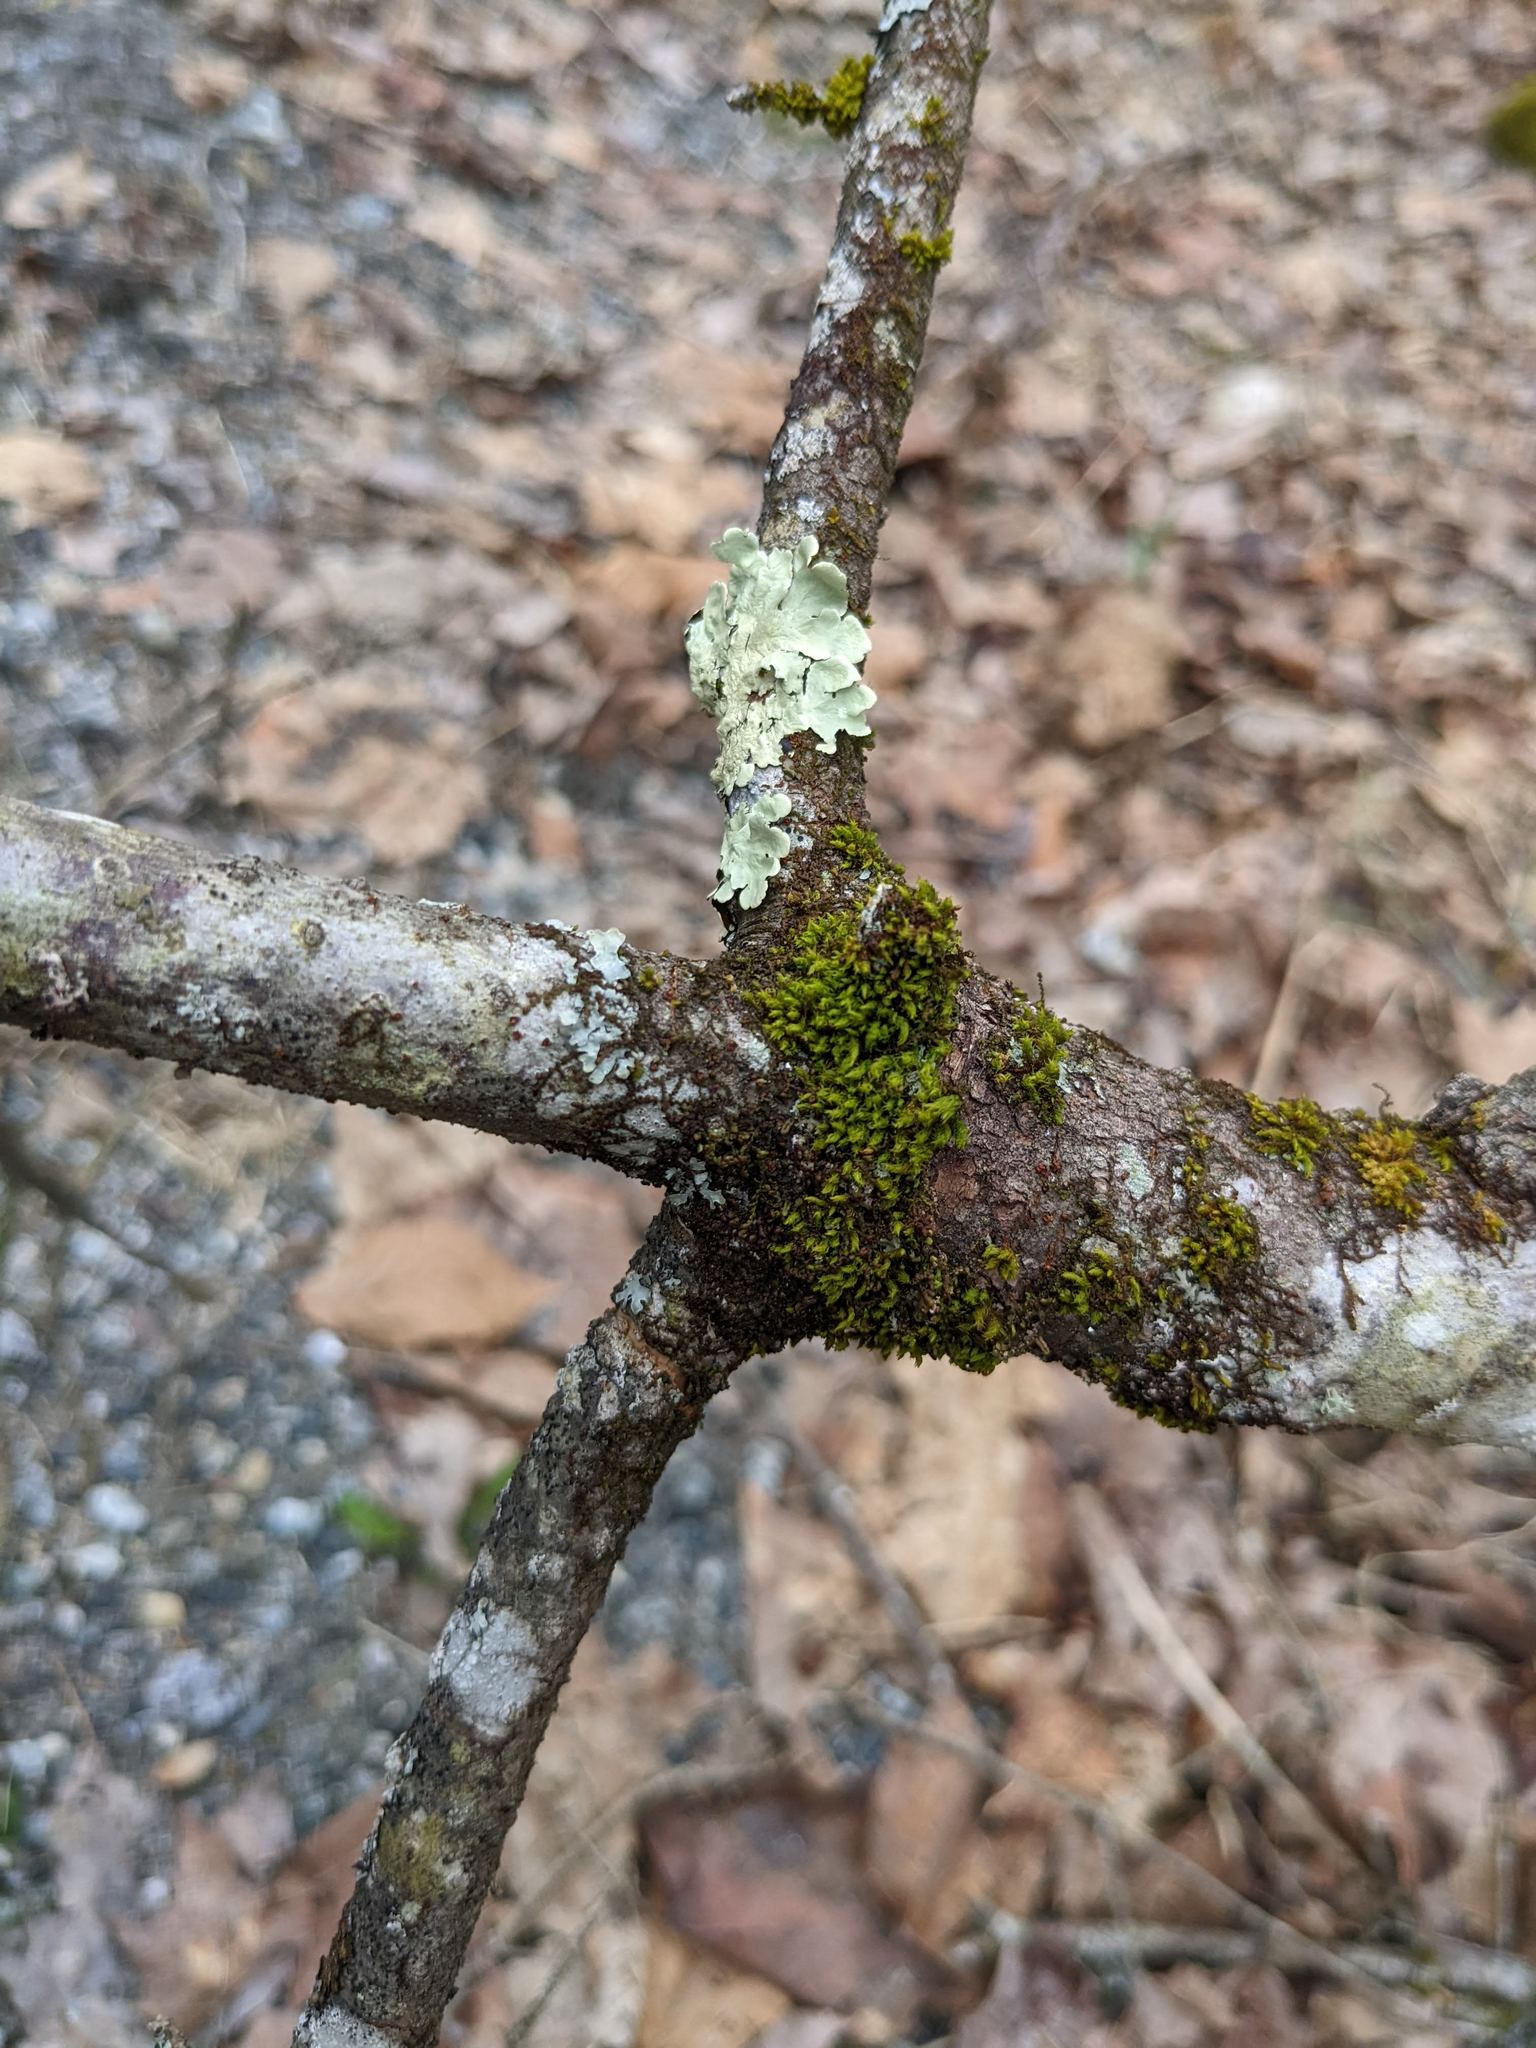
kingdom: Plantae
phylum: Bryophyta
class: Bryopsida
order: Orthotrichales
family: Orthotrichaceae
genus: Ulota
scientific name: Ulota crispa
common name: Crisped pincushion moss
